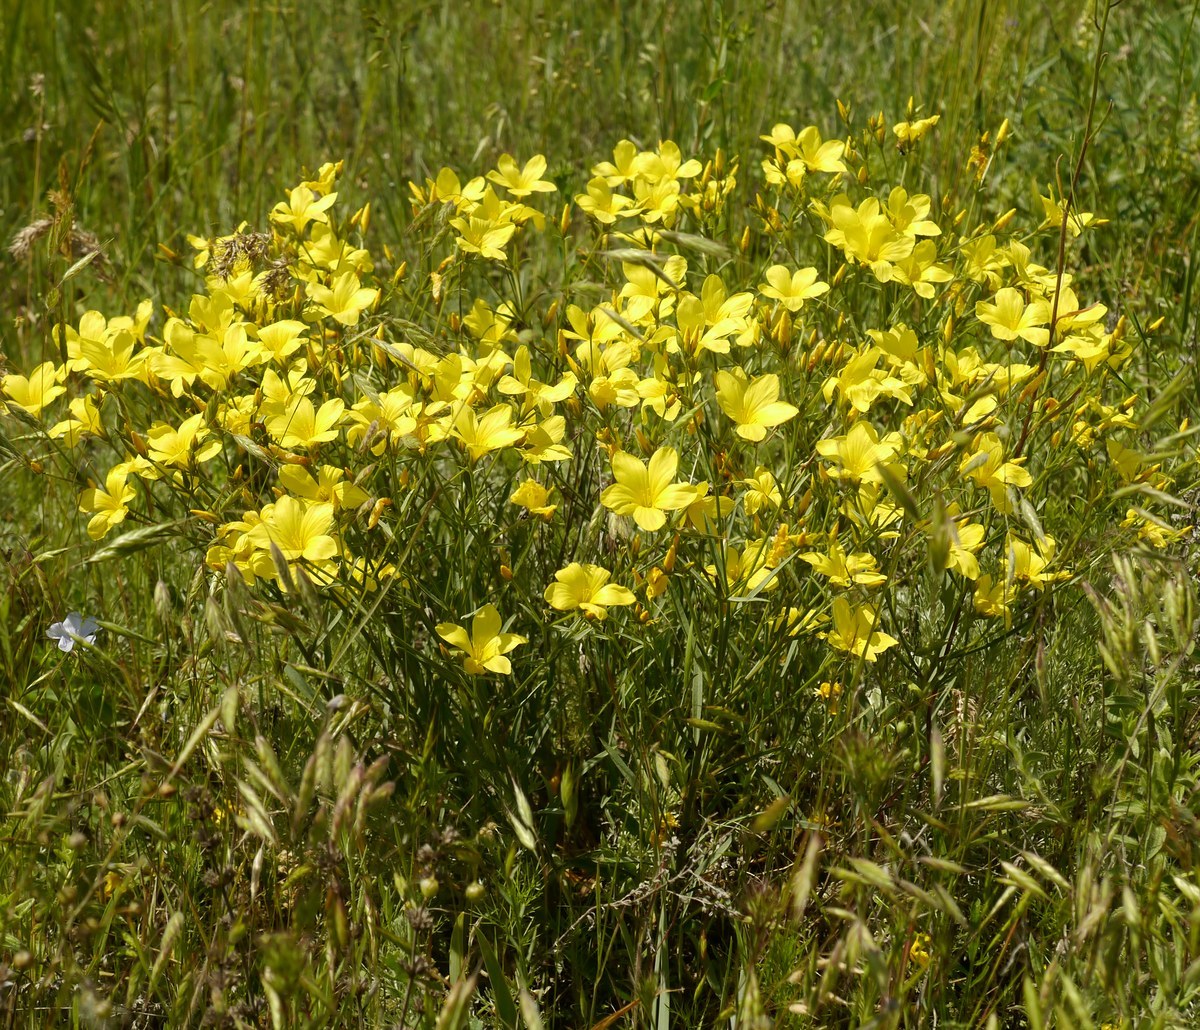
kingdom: Plantae
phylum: Tracheophyta
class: Magnoliopsida
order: Malpighiales
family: Linaceae
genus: Linum
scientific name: Linum pallasianum
